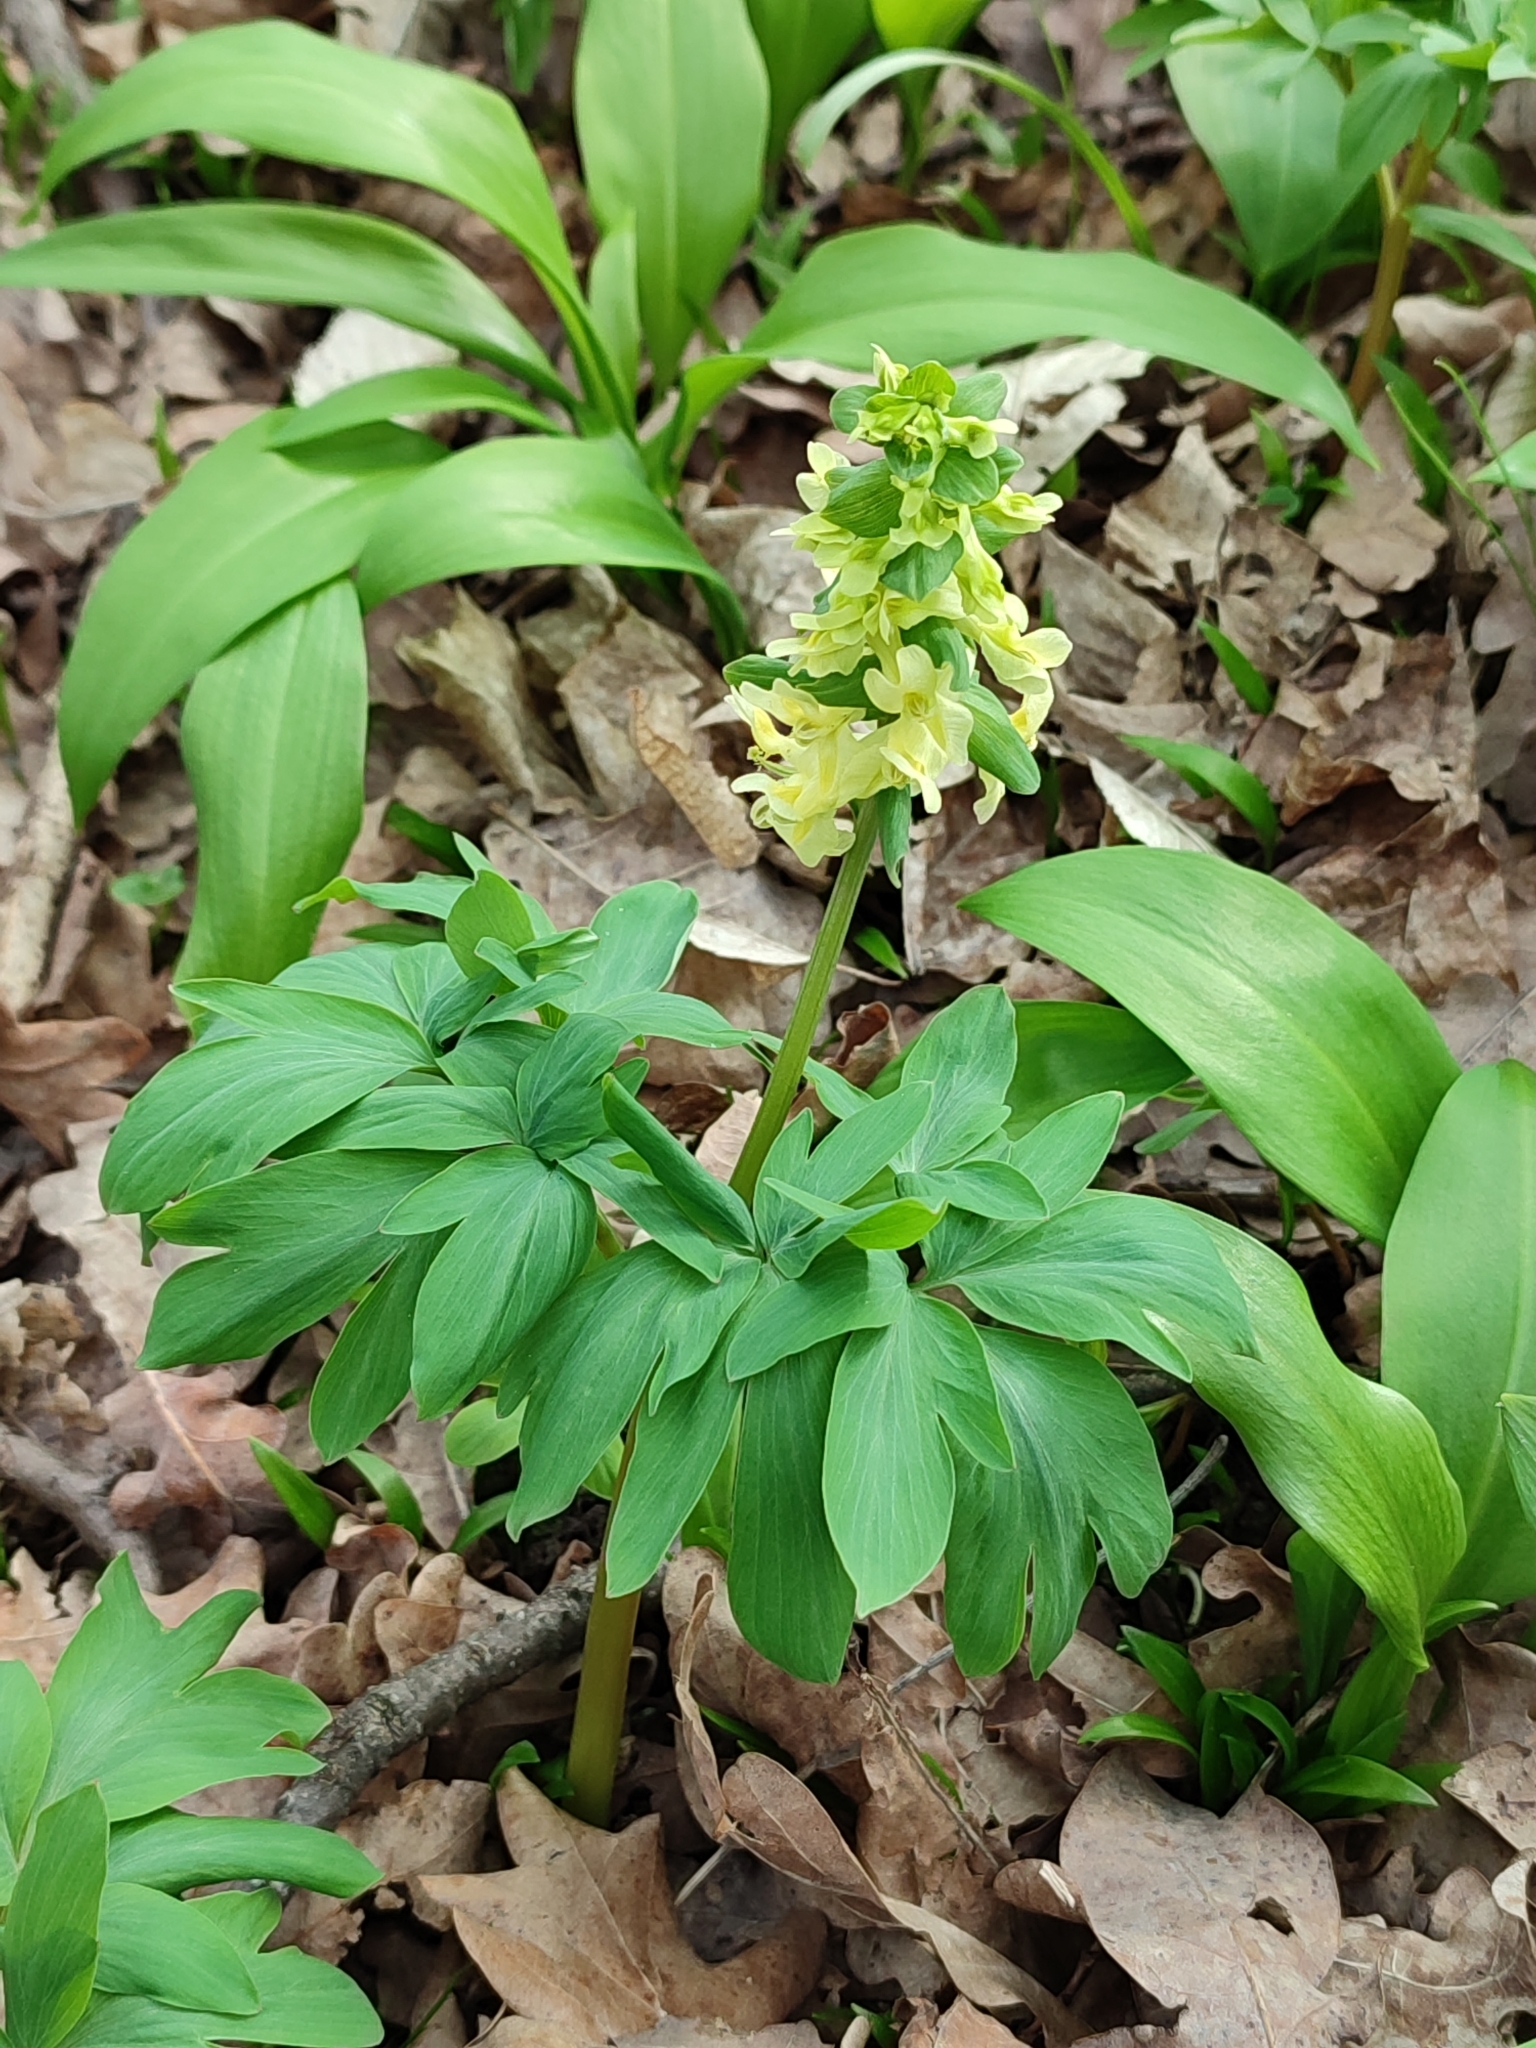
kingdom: Plantae
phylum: Tracheophyta
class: Magnoliopsida
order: Ranunculales
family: Papaveraceae
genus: Corydalis
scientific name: Corydalis cava
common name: Hollowroot
